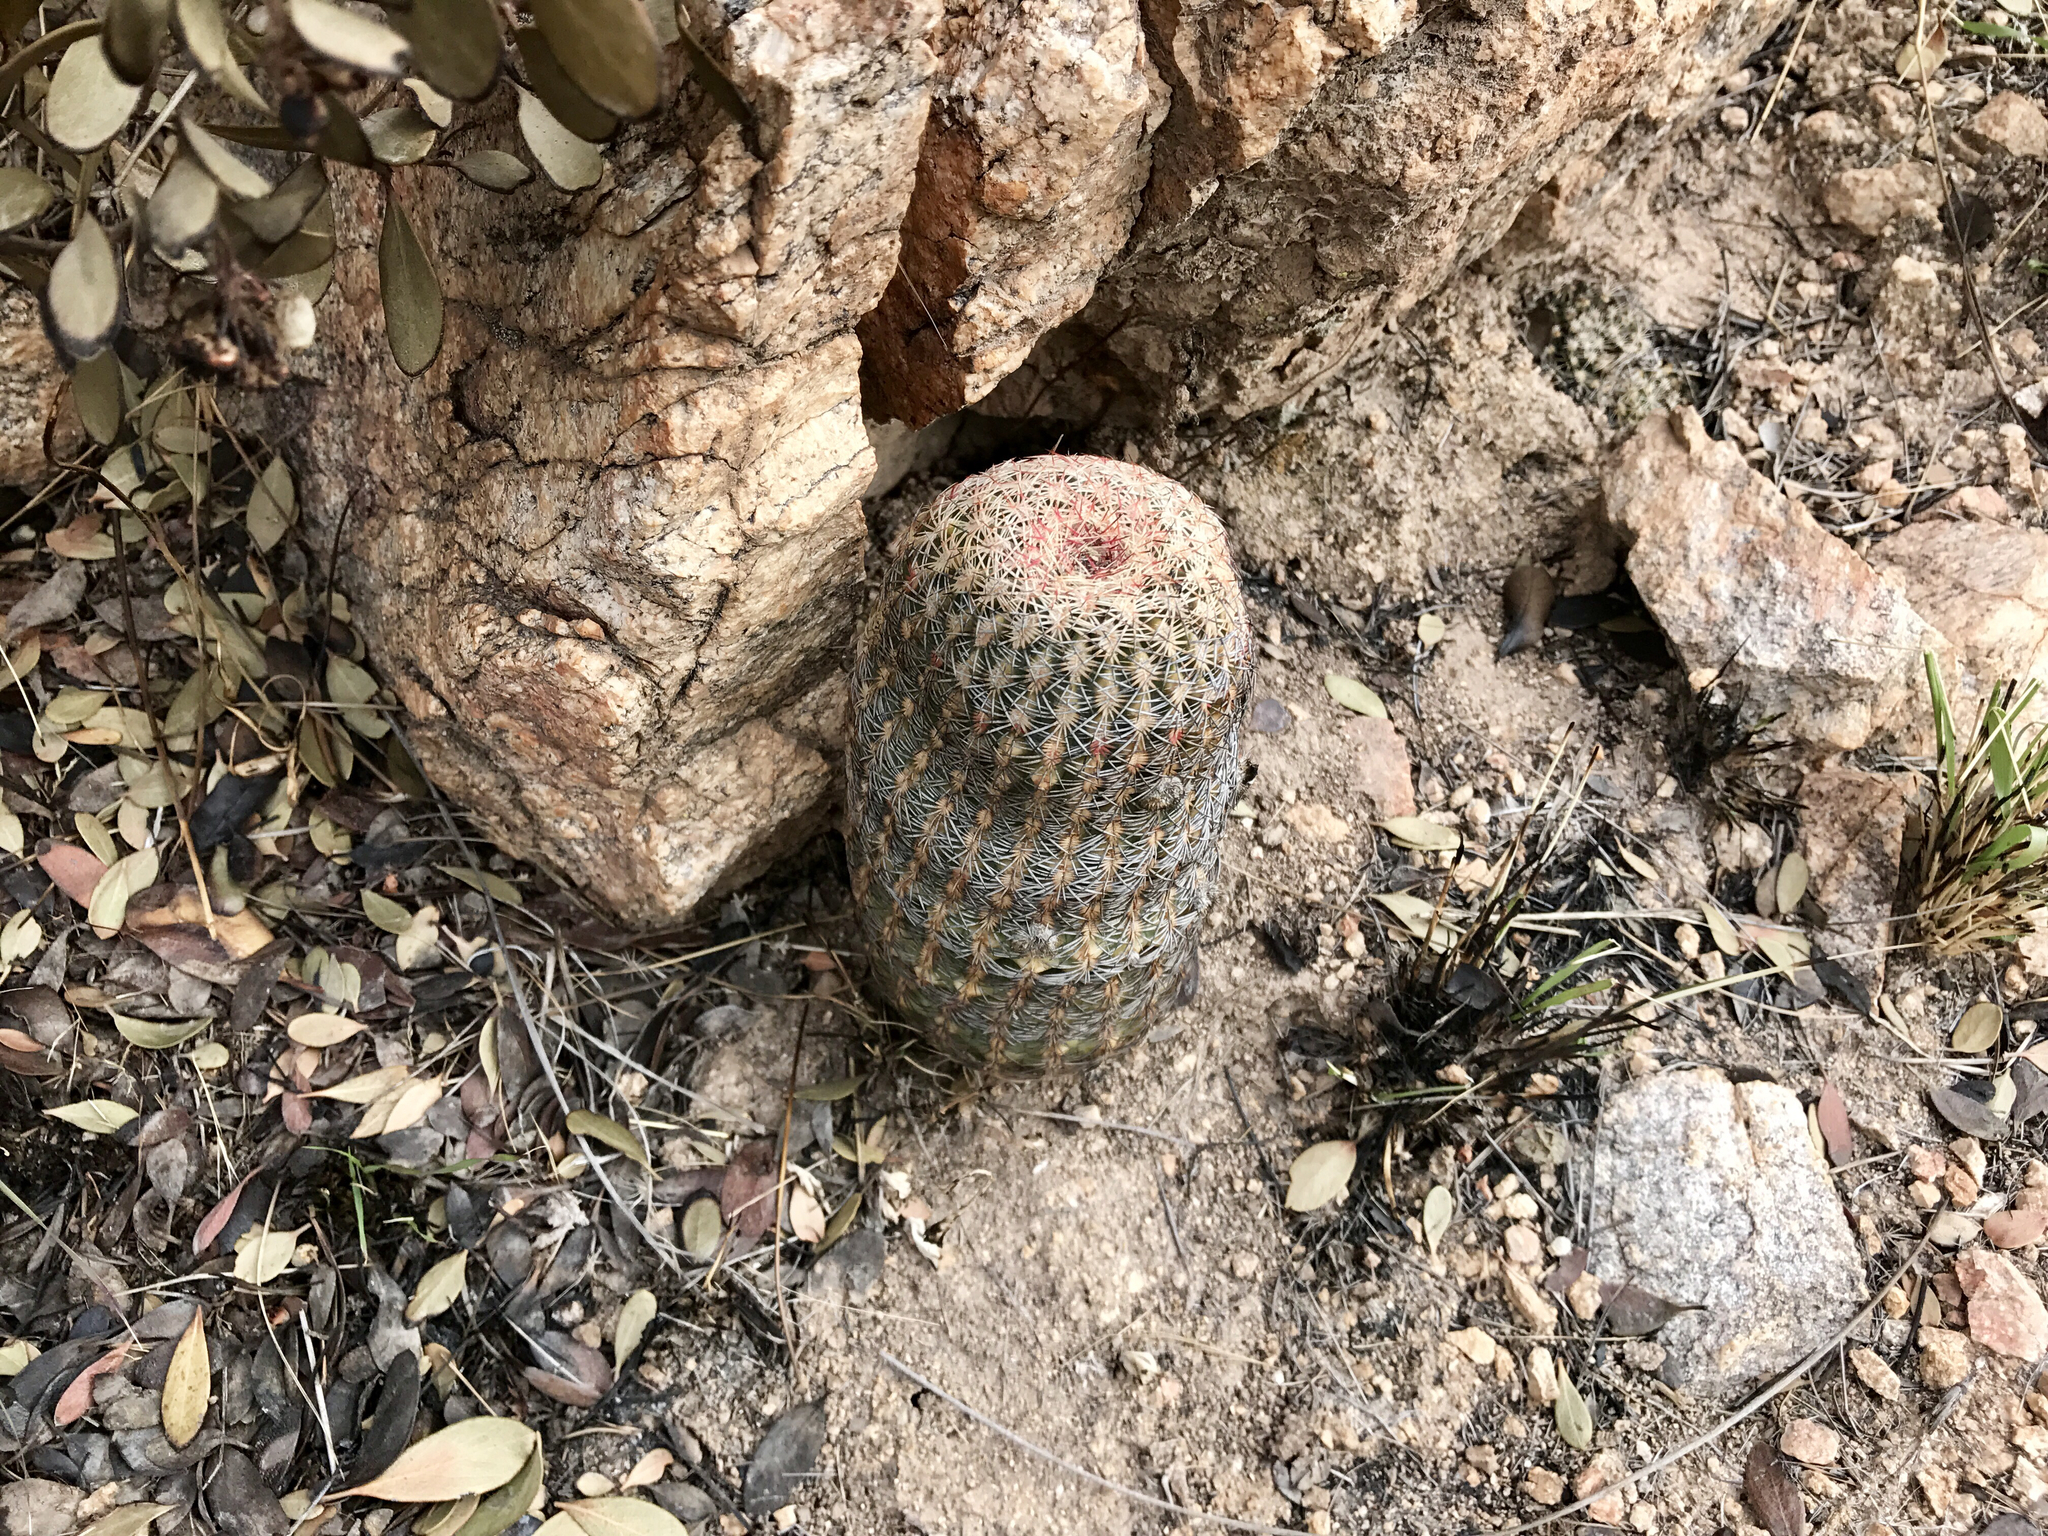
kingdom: Plantae
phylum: Tracheophyta
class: Magnoliopsida
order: Caryophyllales
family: Cactaceae
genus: Echinocereus
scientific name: Echinocereus rigidissimus
